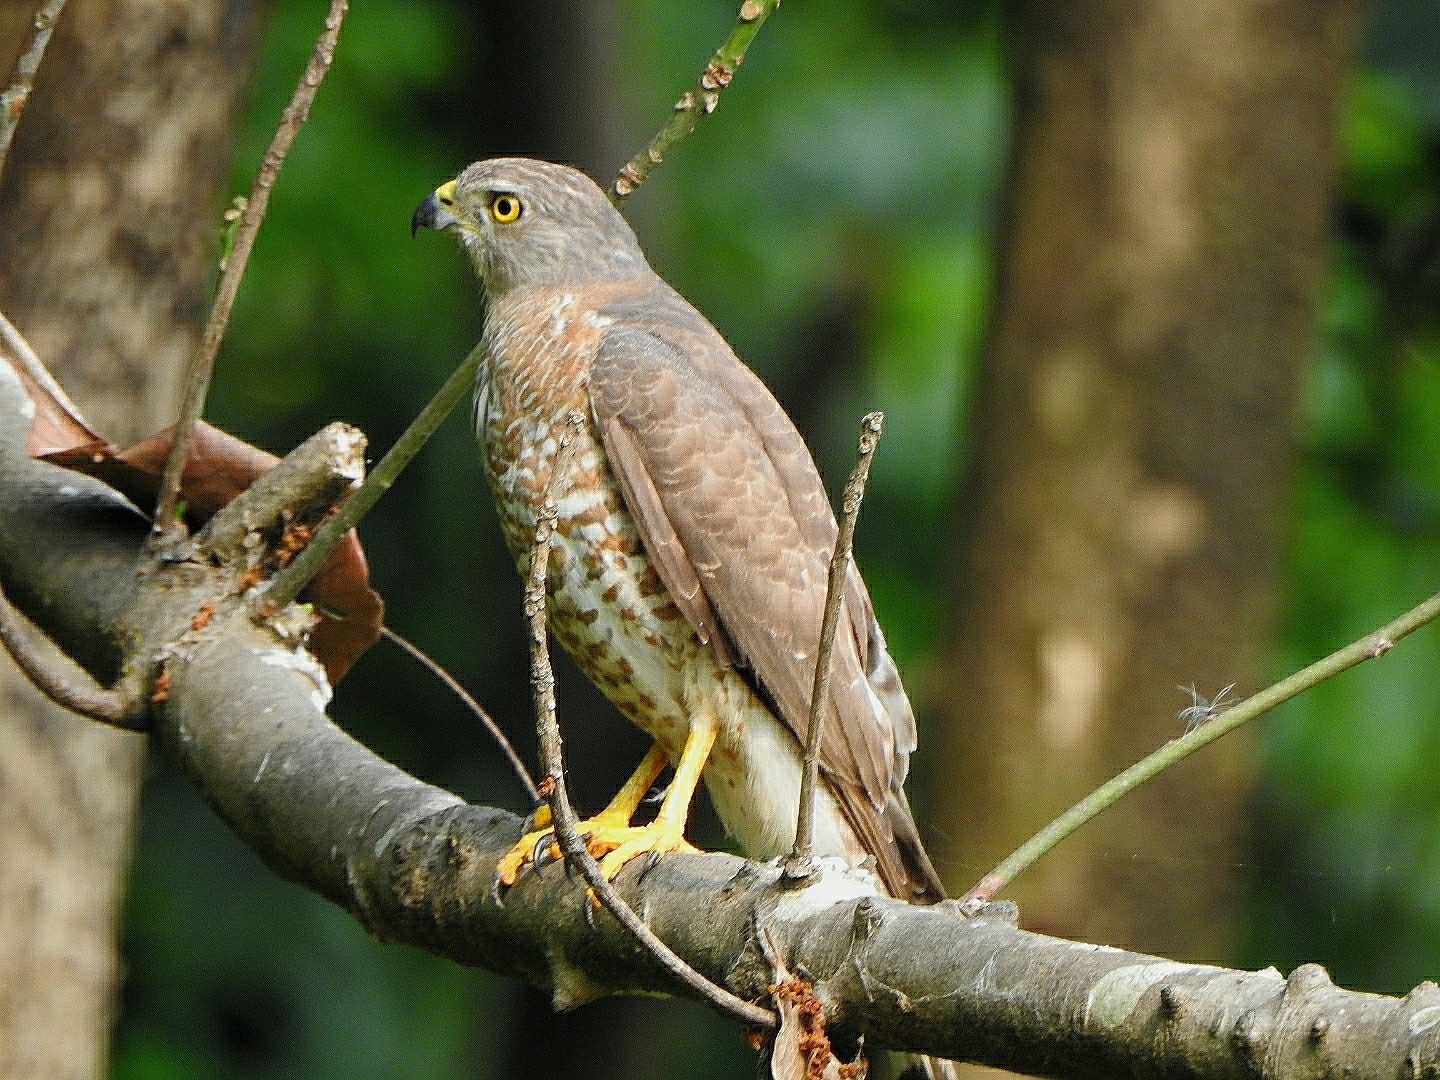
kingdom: Animalia
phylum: Chordata
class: Aves
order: Accipitriformes
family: Accipitridae
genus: Accipiter
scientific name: Accipiter badius
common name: Shikra
